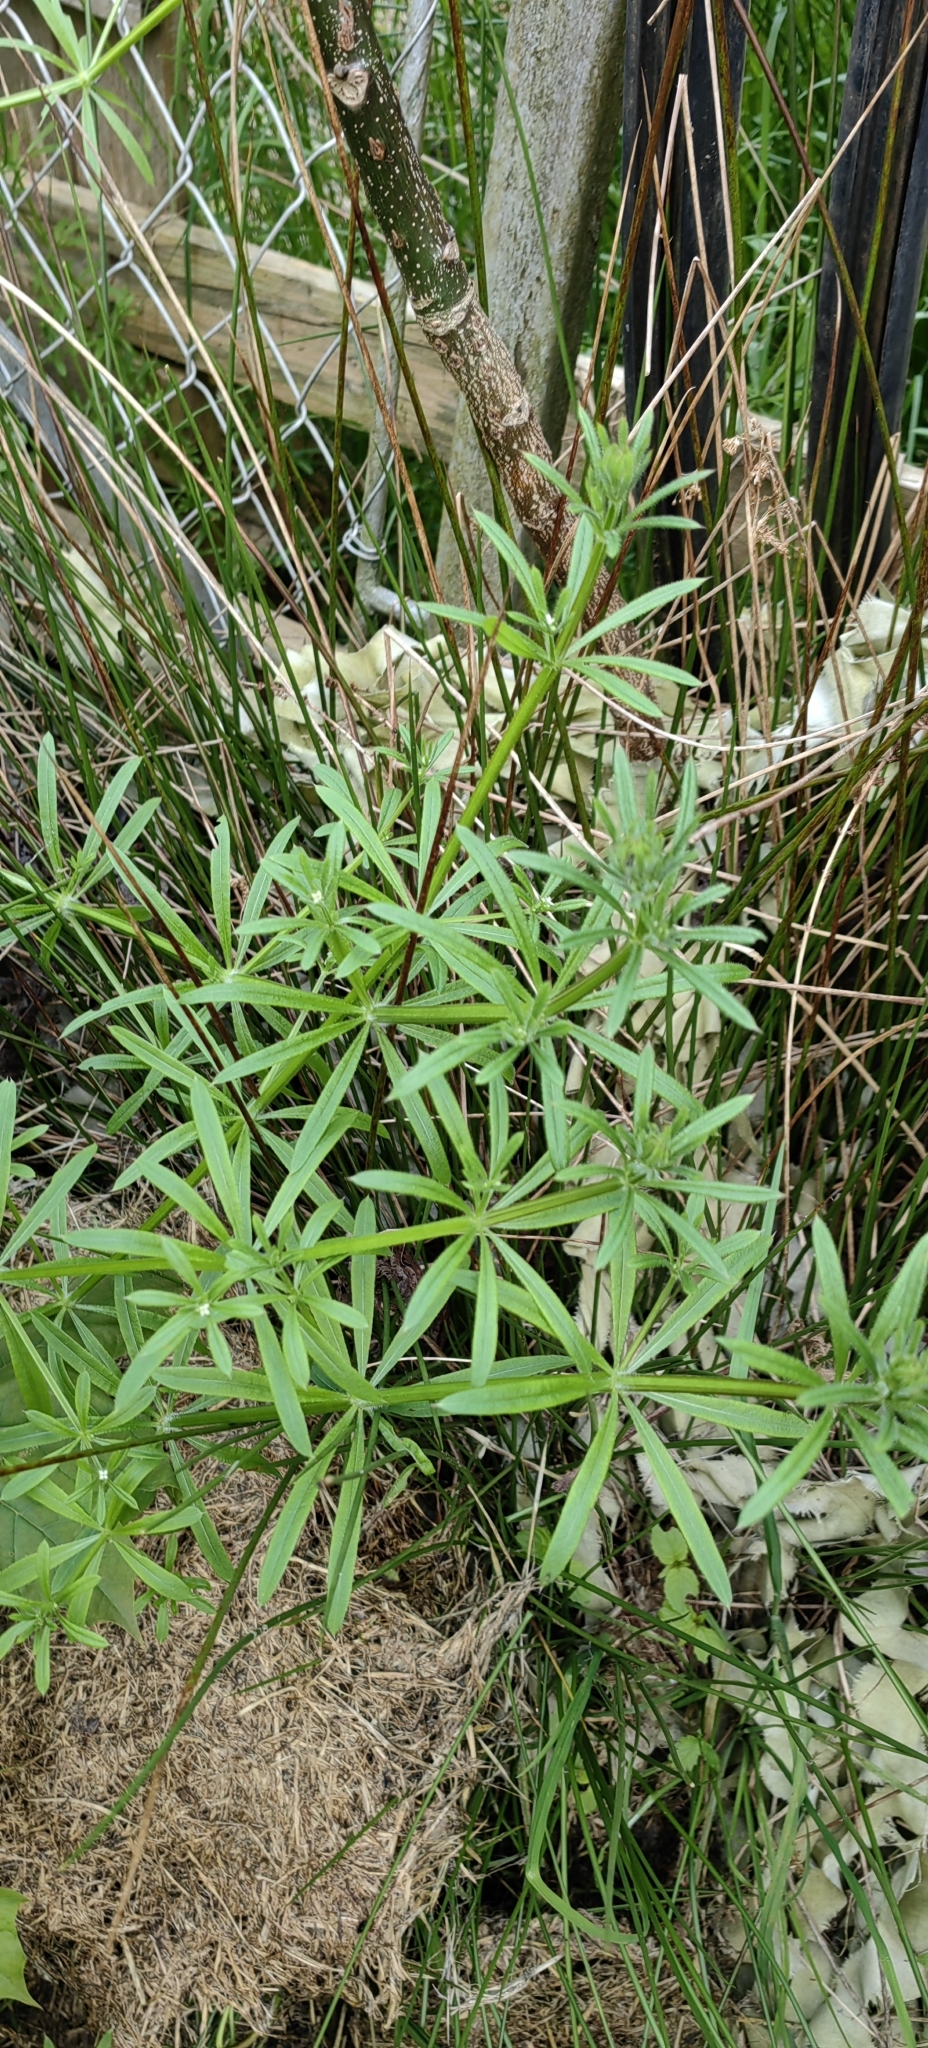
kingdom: Plantae
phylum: Tracheophyta
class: Magnoliopsida
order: Gentianales
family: Rubiaceae
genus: Galium
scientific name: Galium aparine
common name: Cleavers
